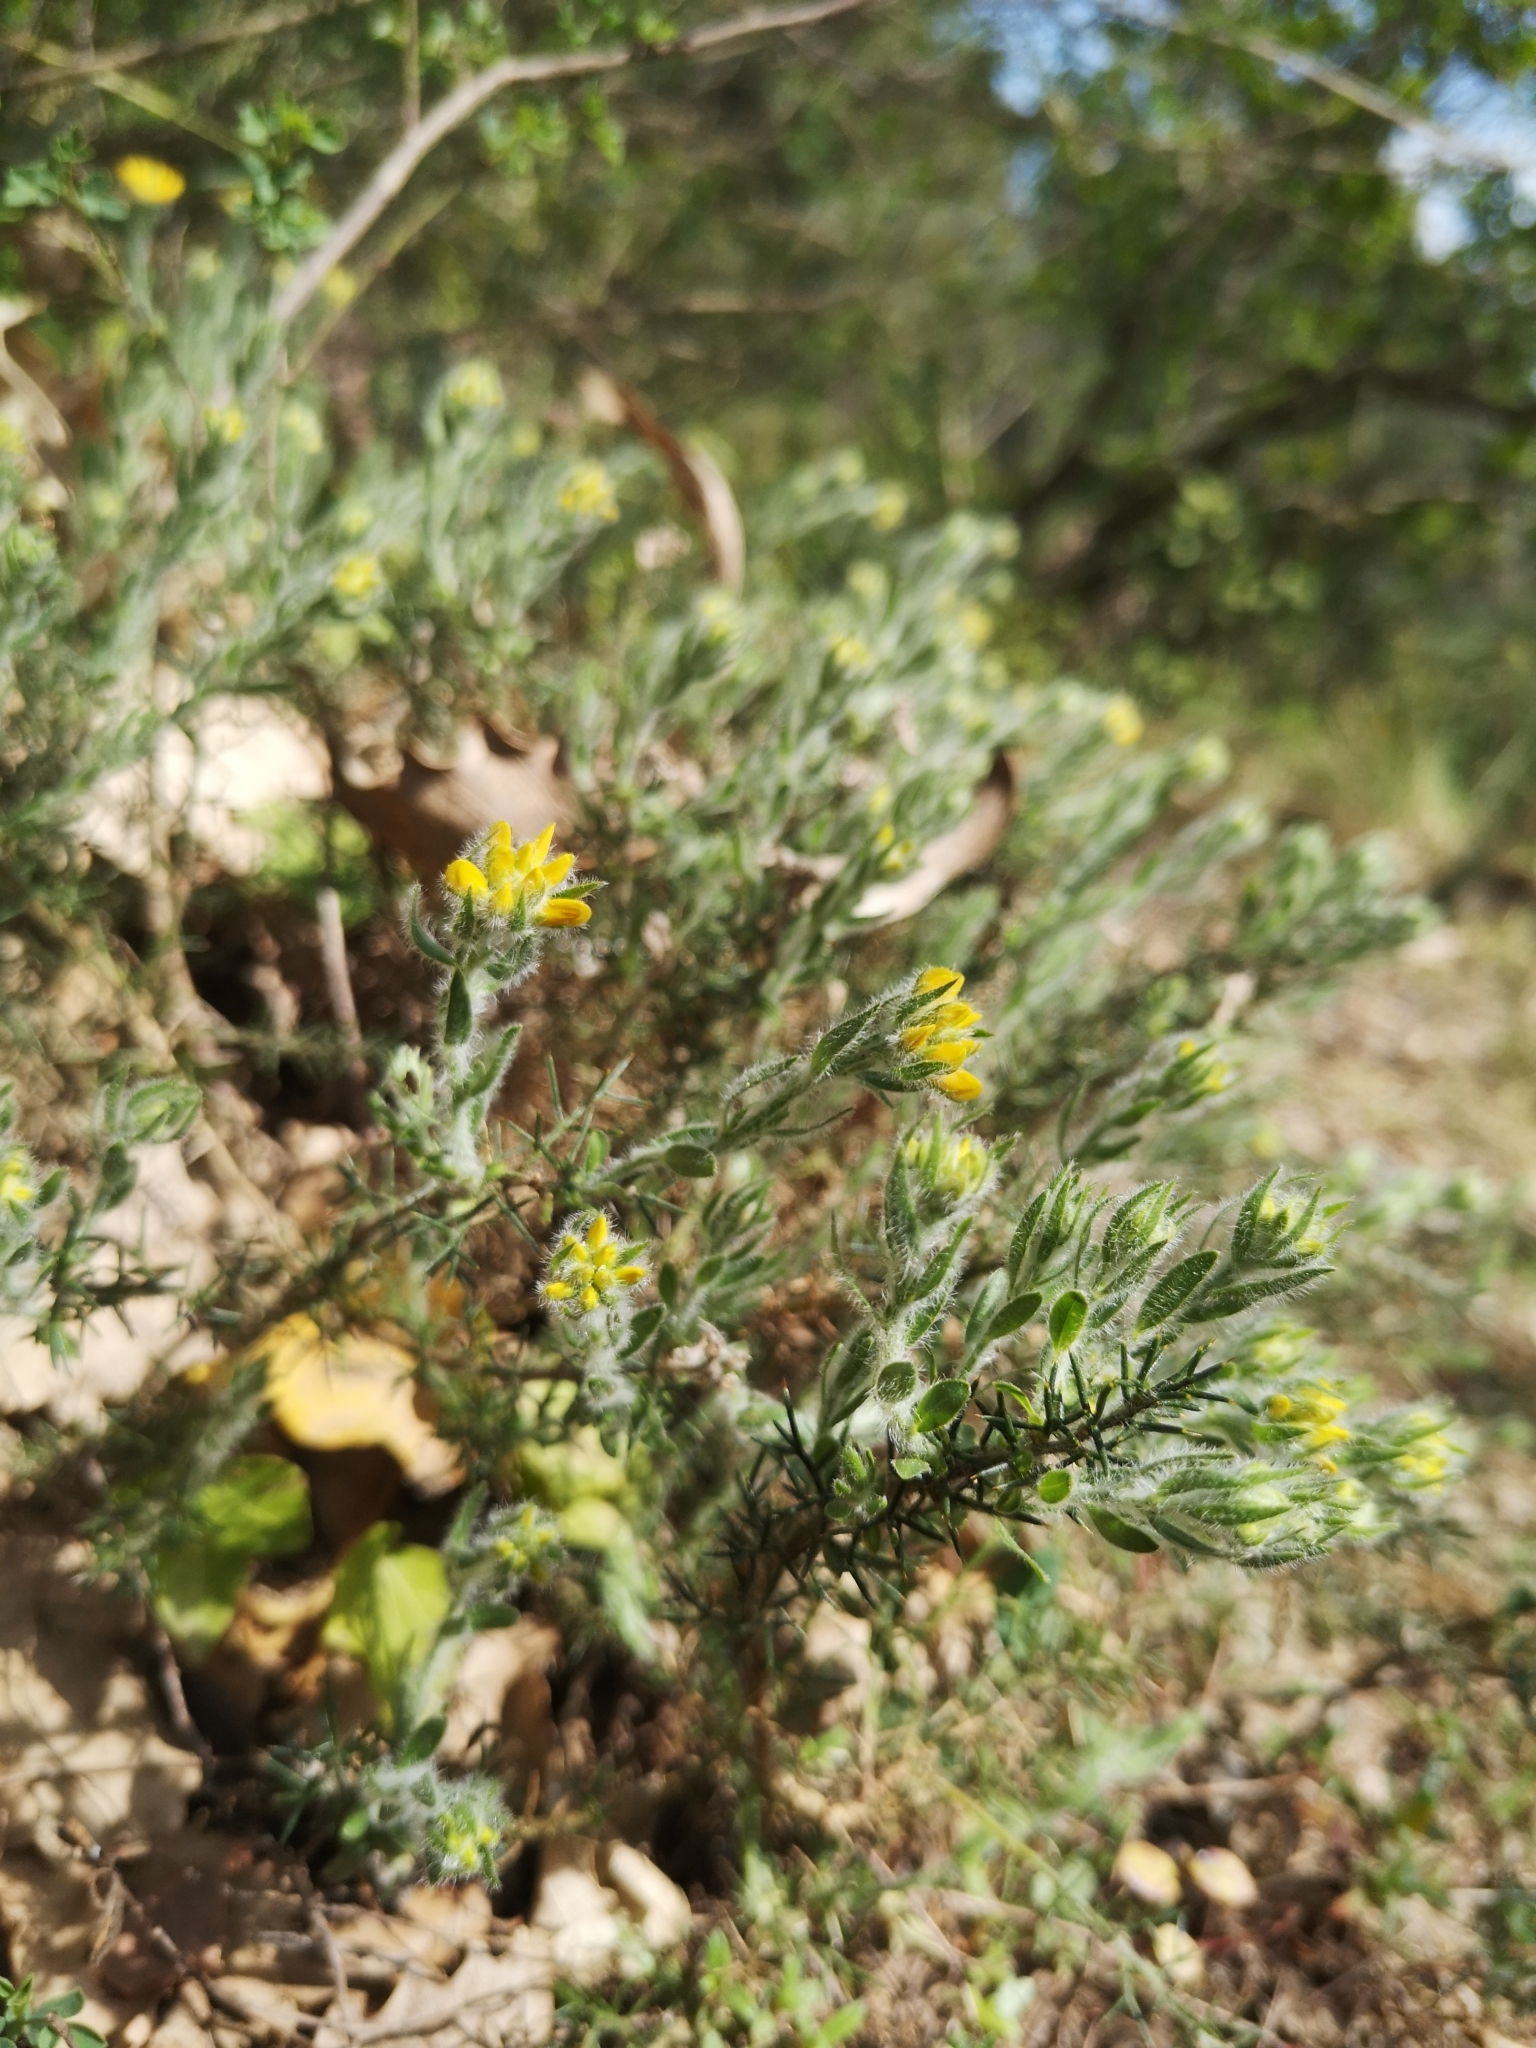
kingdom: Plantae
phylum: Tracheophyta
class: Magnoliopsida
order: Fabales
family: Fabaceae
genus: Genista
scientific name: Genista hispanica
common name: Spanish gorse
